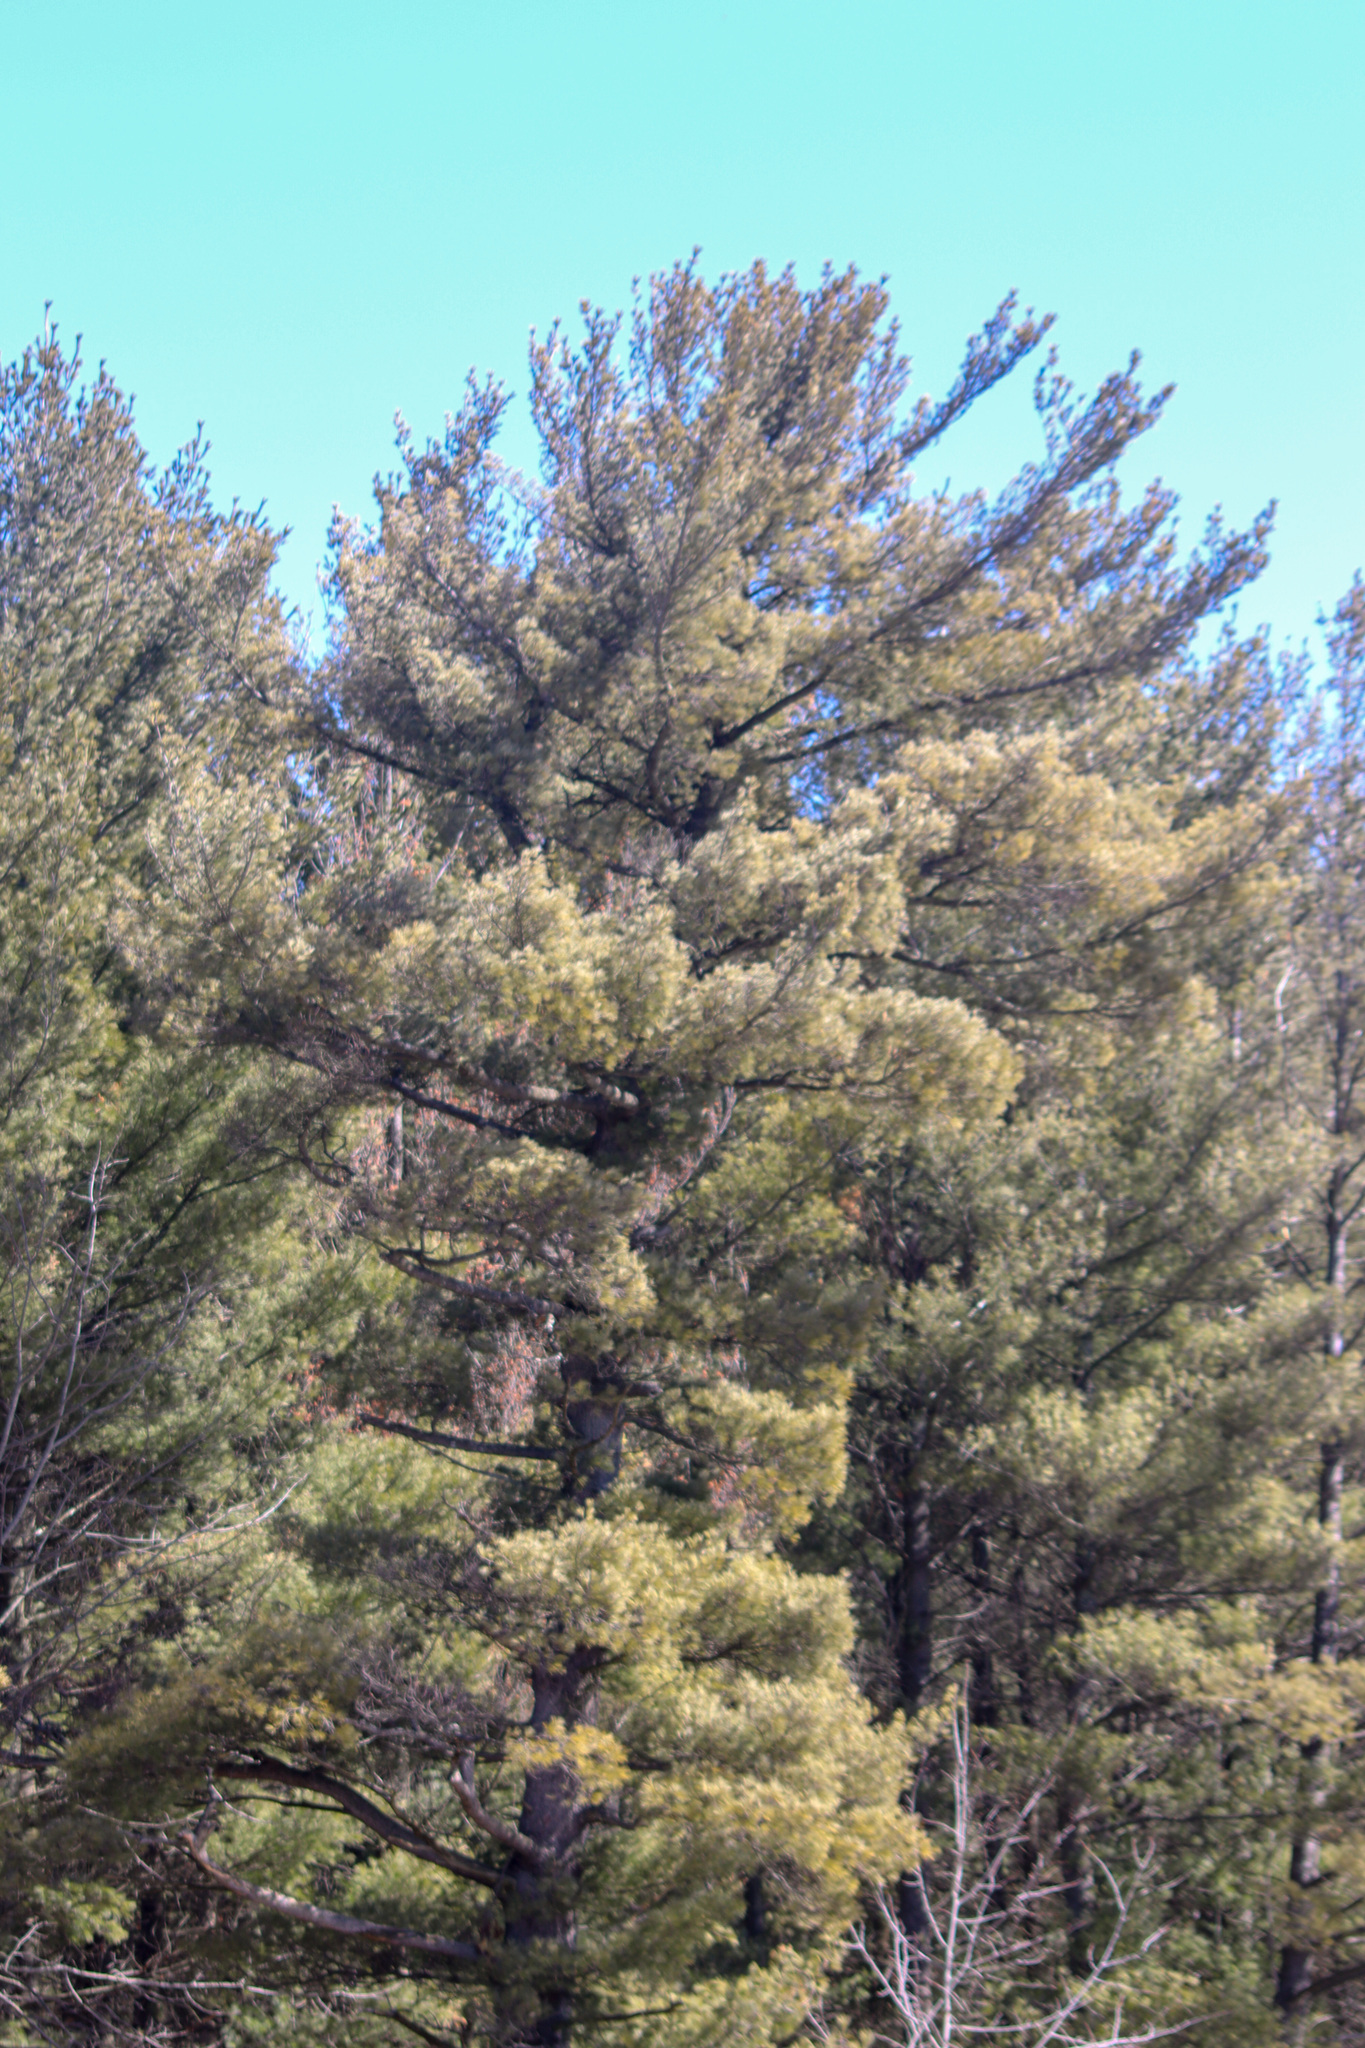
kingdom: Plantae
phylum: Tracheophyta
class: Pinopsida
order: Pinales
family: Pinaceae
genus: Pinus
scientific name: Pinus strobus
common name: Weymouth pine
